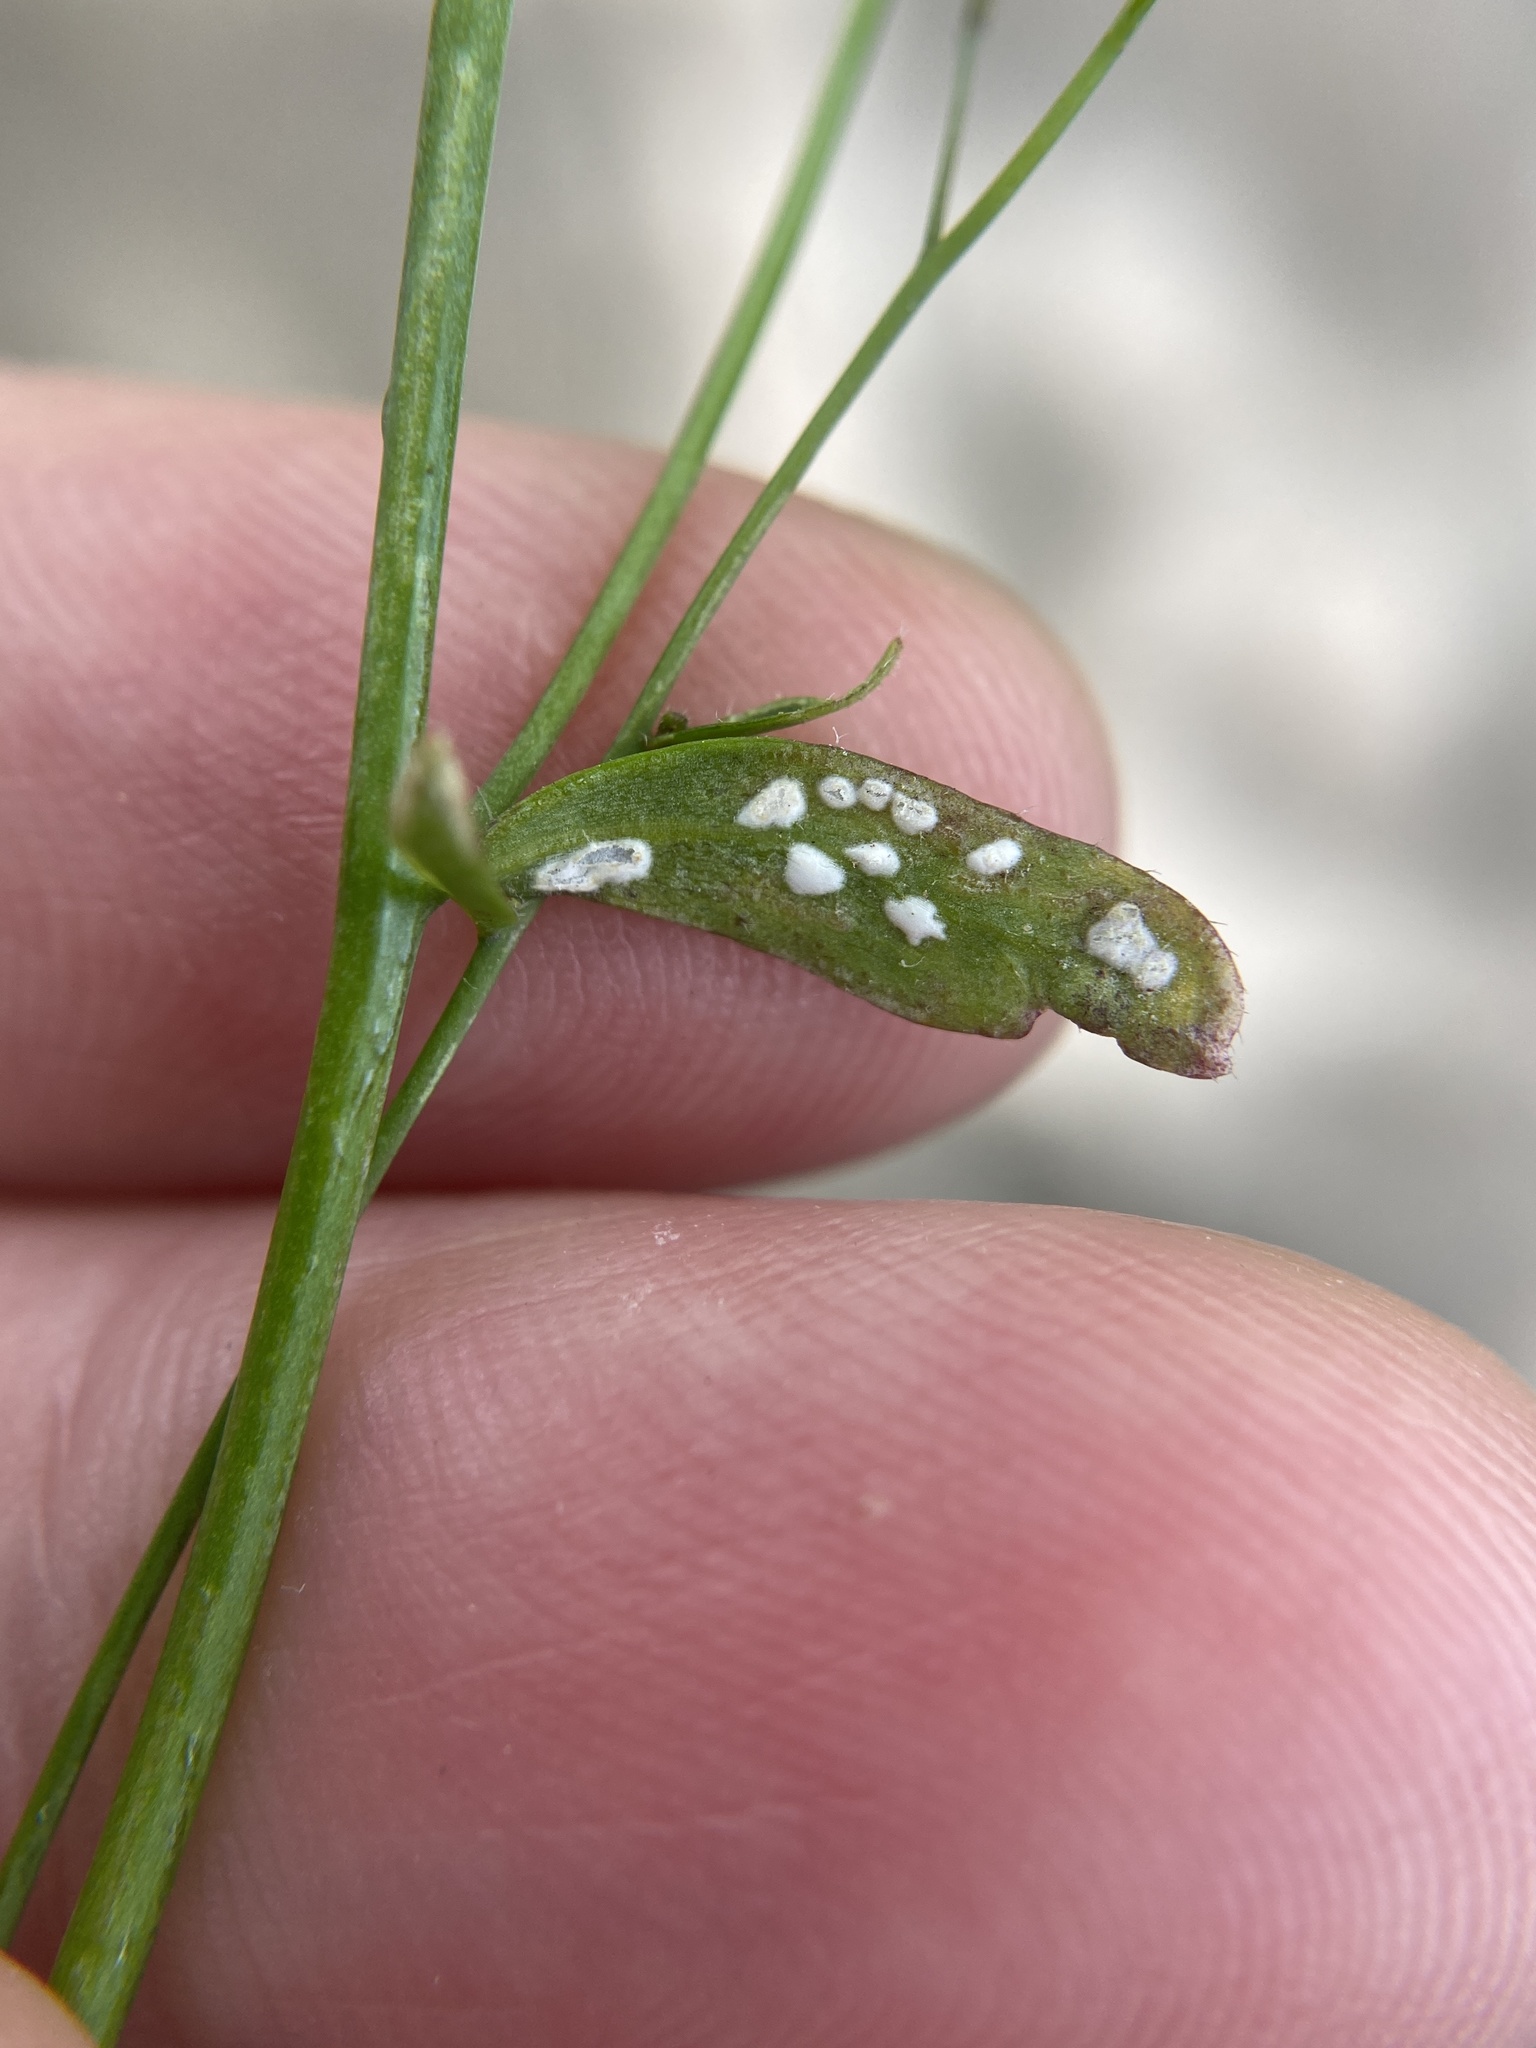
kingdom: Chromista
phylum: Oomycota
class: Peronosporea
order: Albuginales
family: Albuginaceae
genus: Albugo
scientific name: Albugo candida
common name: Crucifer white blister
